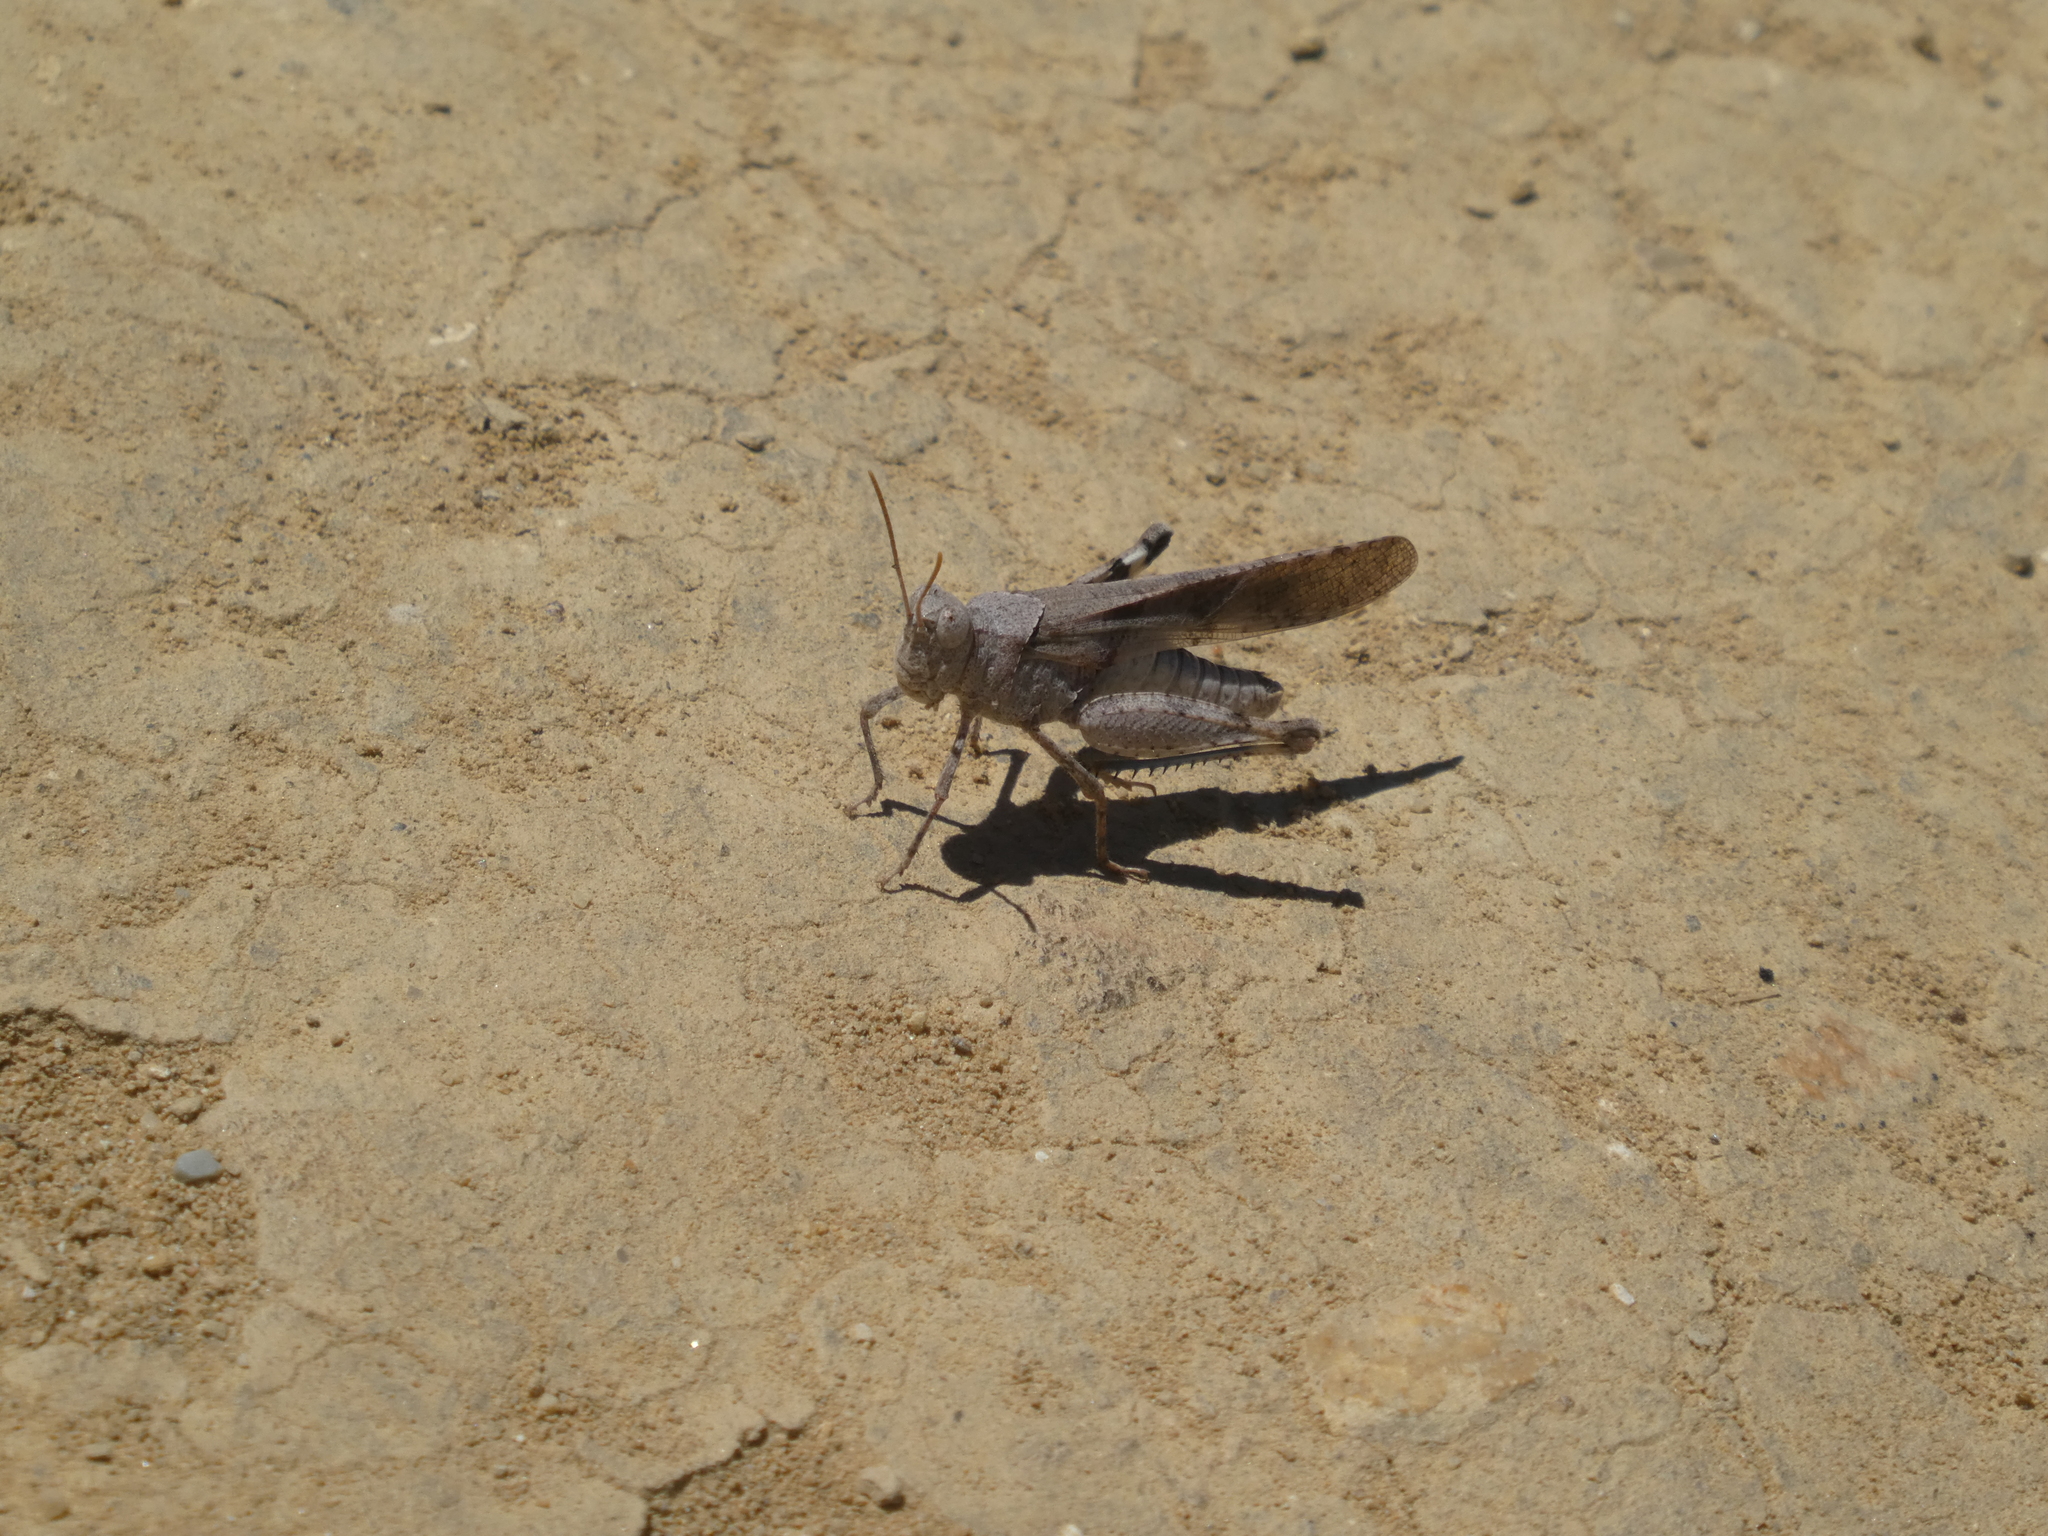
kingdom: Animalia
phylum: Arthropoda
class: Insecta
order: Orthoptera
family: Acrididae
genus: Trimerotropis
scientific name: Trimerotropis thalassica
